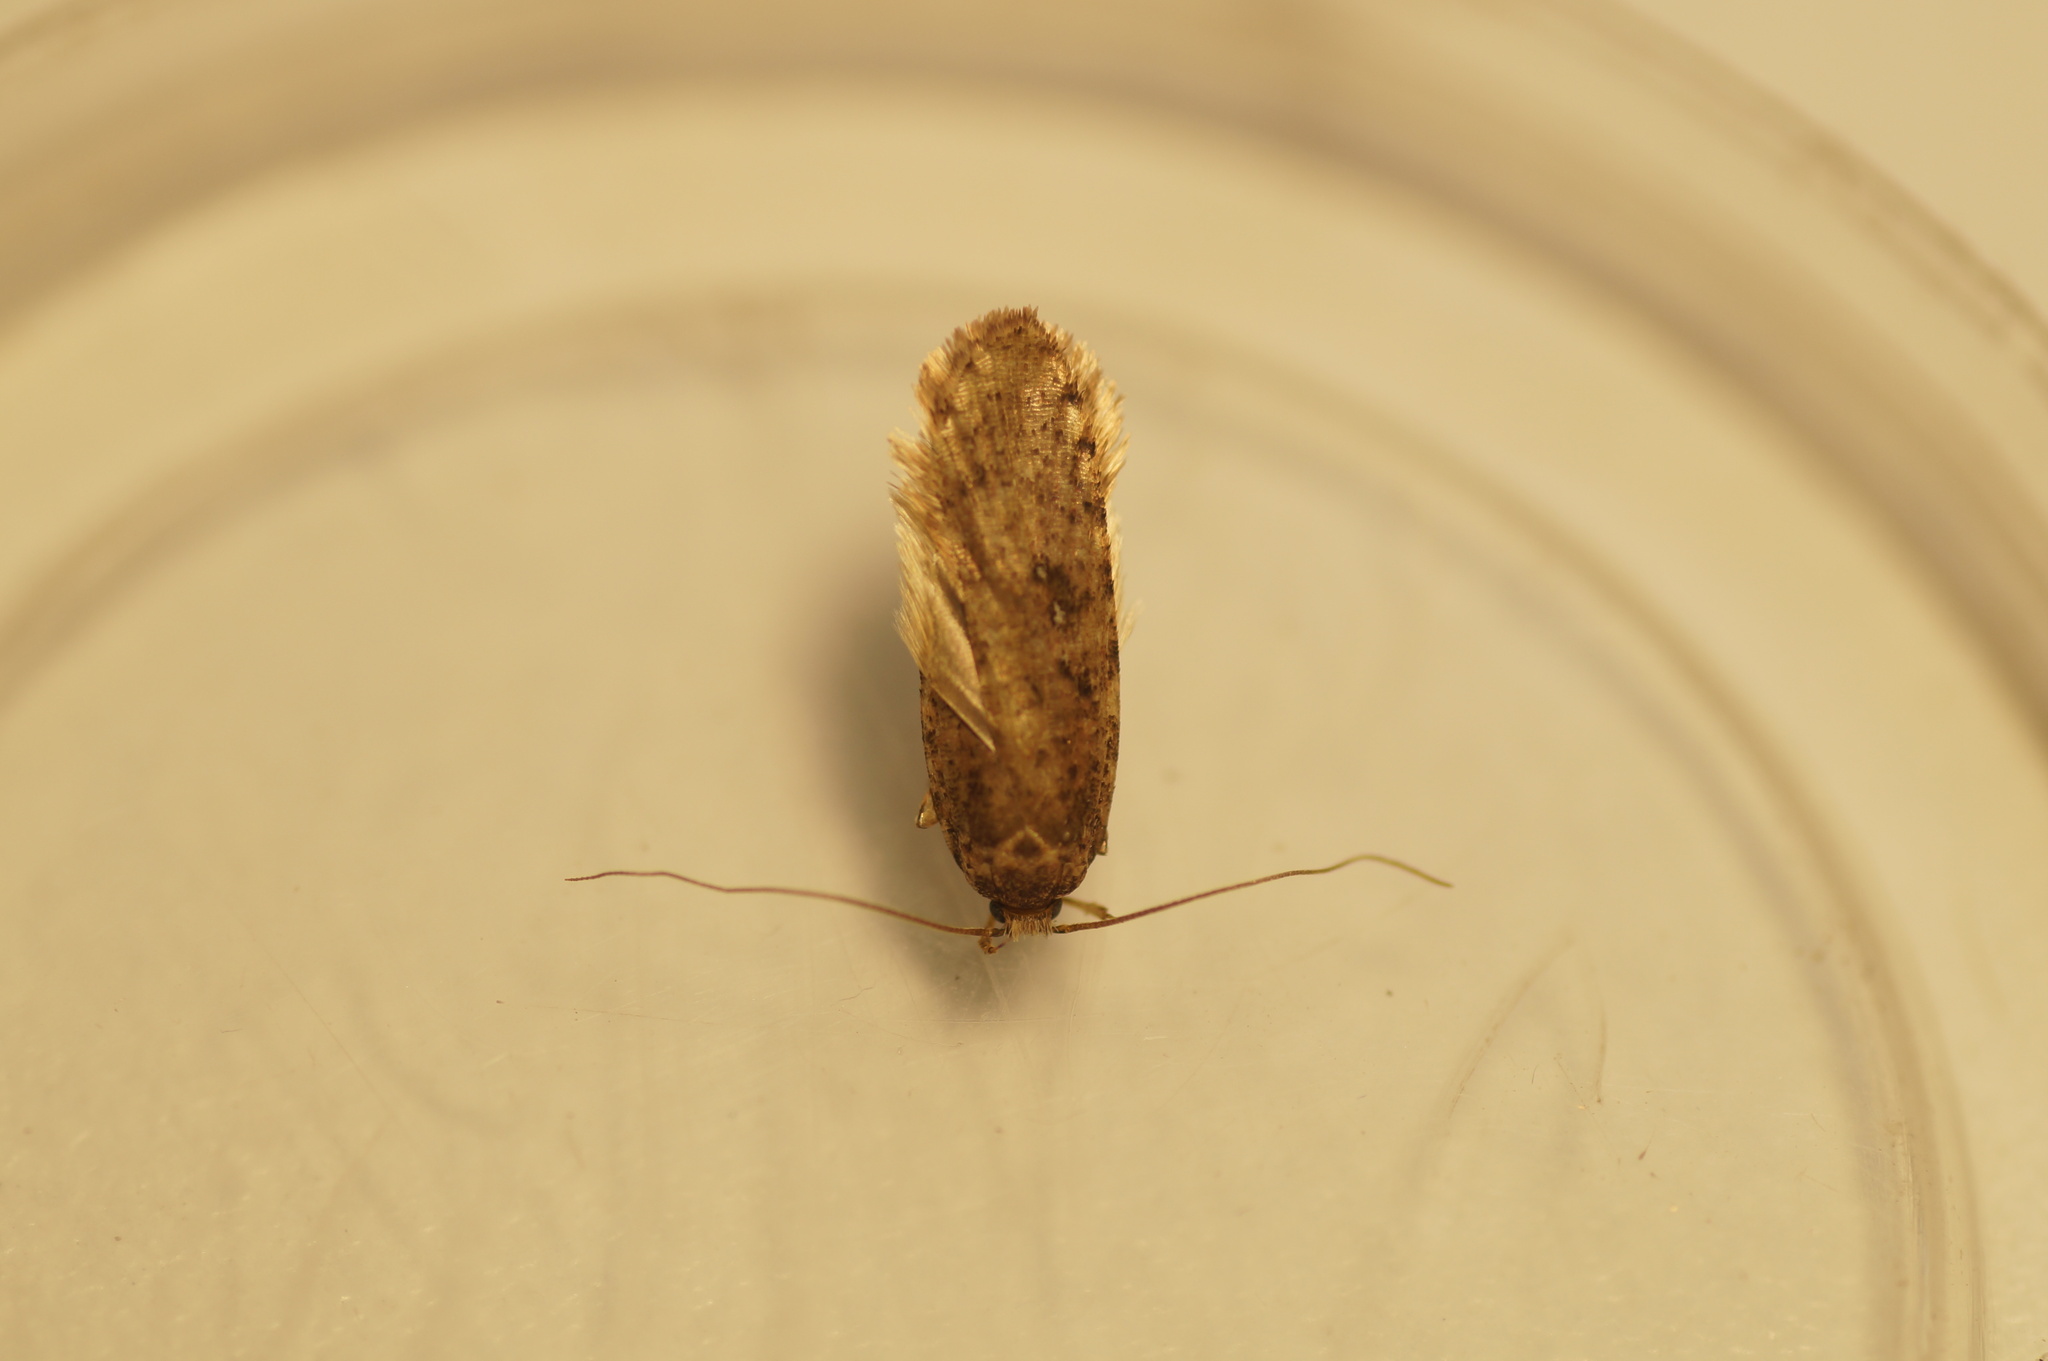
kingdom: Animalia
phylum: Arthropoda
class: Insecta
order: Lepidoptera
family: Depressariidae
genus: Agonopterix
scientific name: Agonopterix heracliana
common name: Common flat-body
